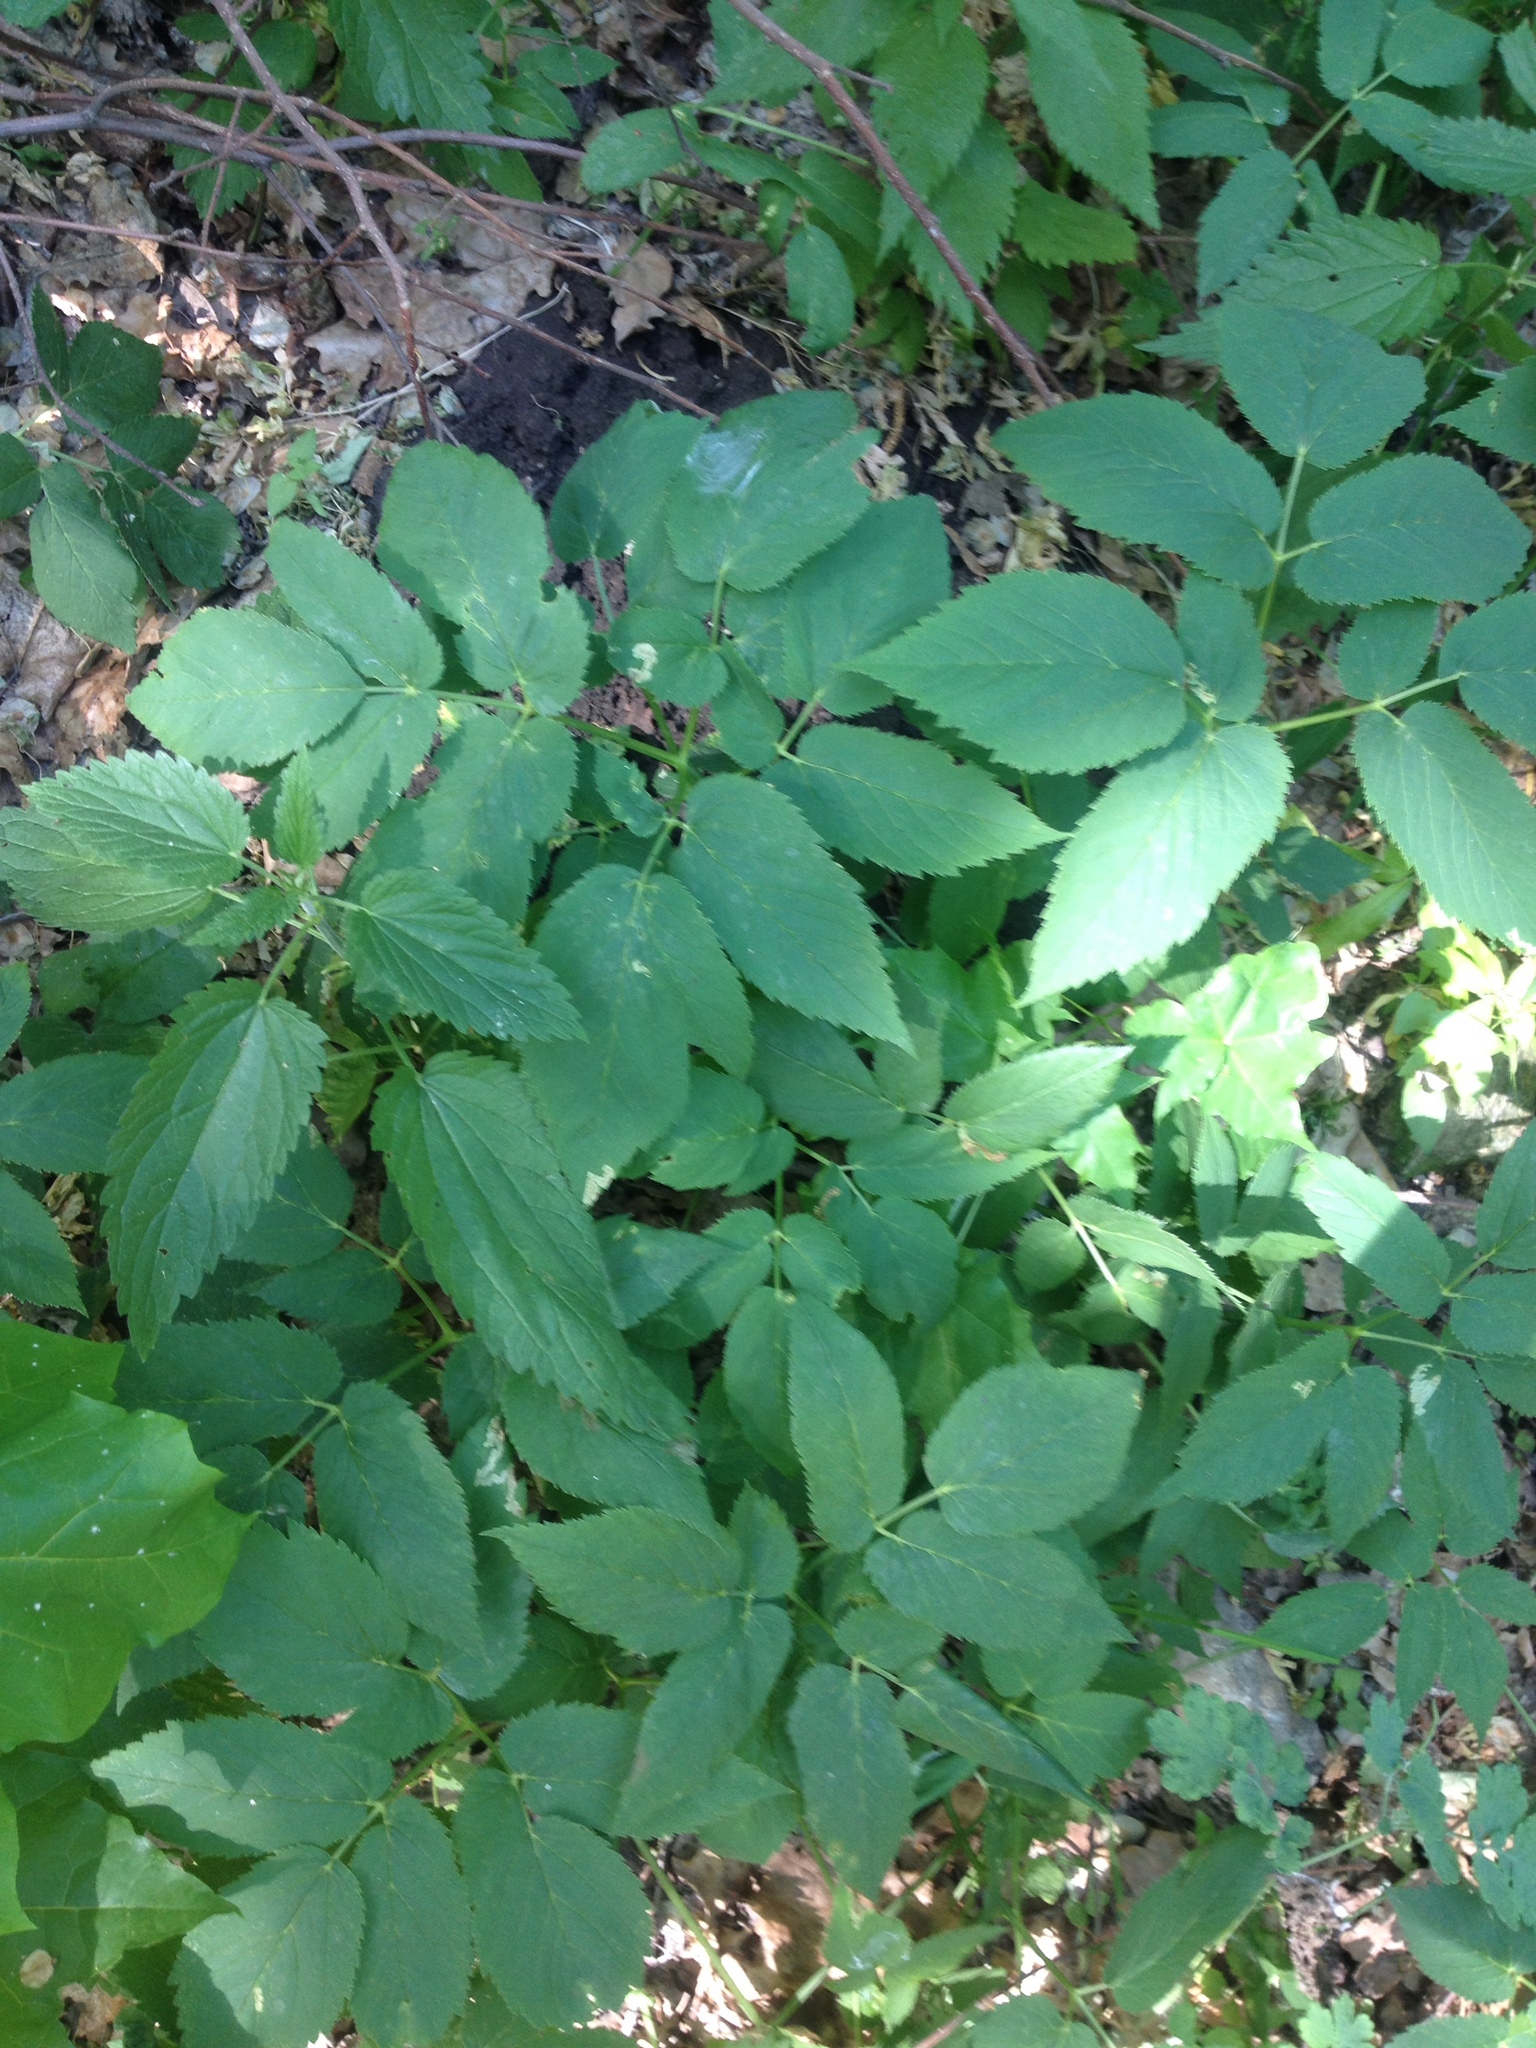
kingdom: Plantae
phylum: Tracheophyta
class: Magnoliopsida
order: Apiales
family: Apiaceae
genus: Aegopodium
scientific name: Aegopodium podagraria
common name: Ground-elder
